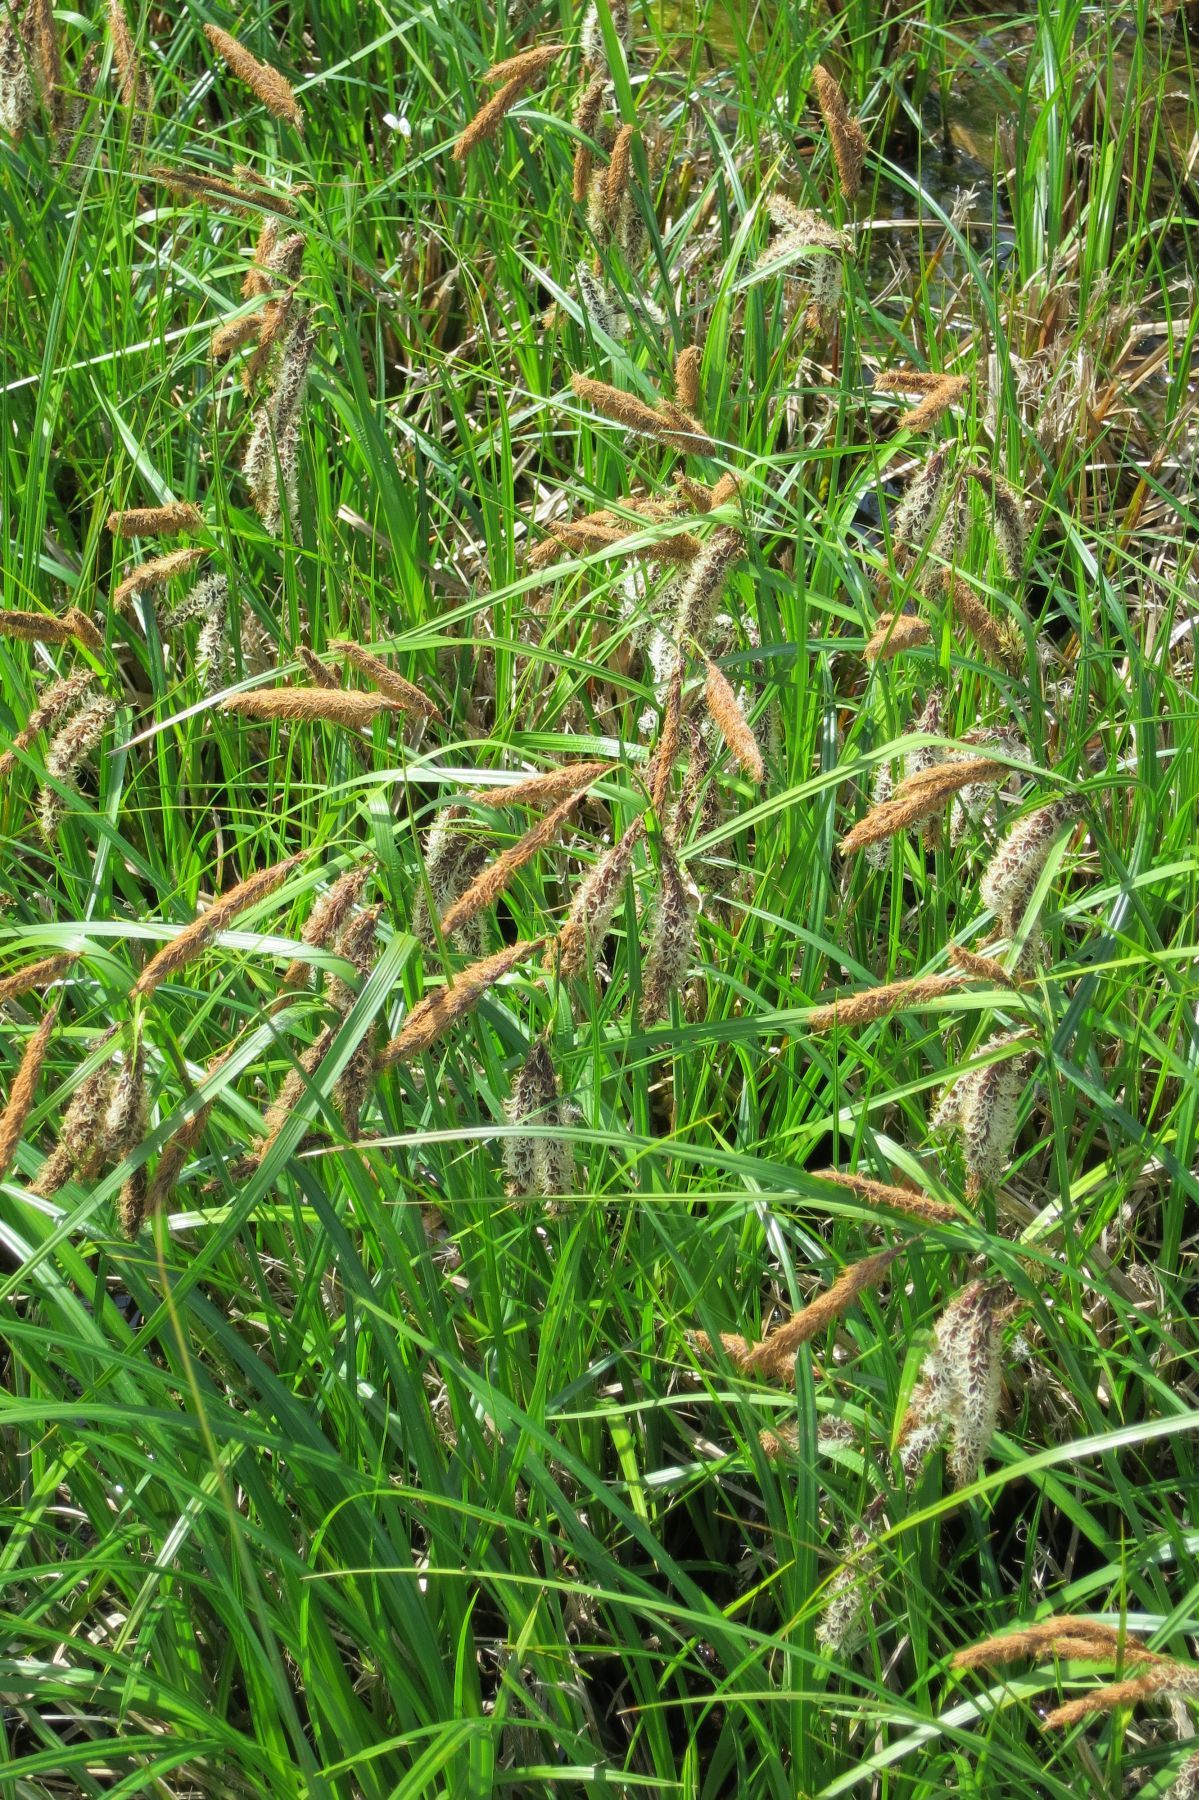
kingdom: Plantae
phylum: Tracheophyta
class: Liliopsida
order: Poales
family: Cyperaceae
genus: Carex
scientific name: Carex obnupta
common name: Slough sedge
